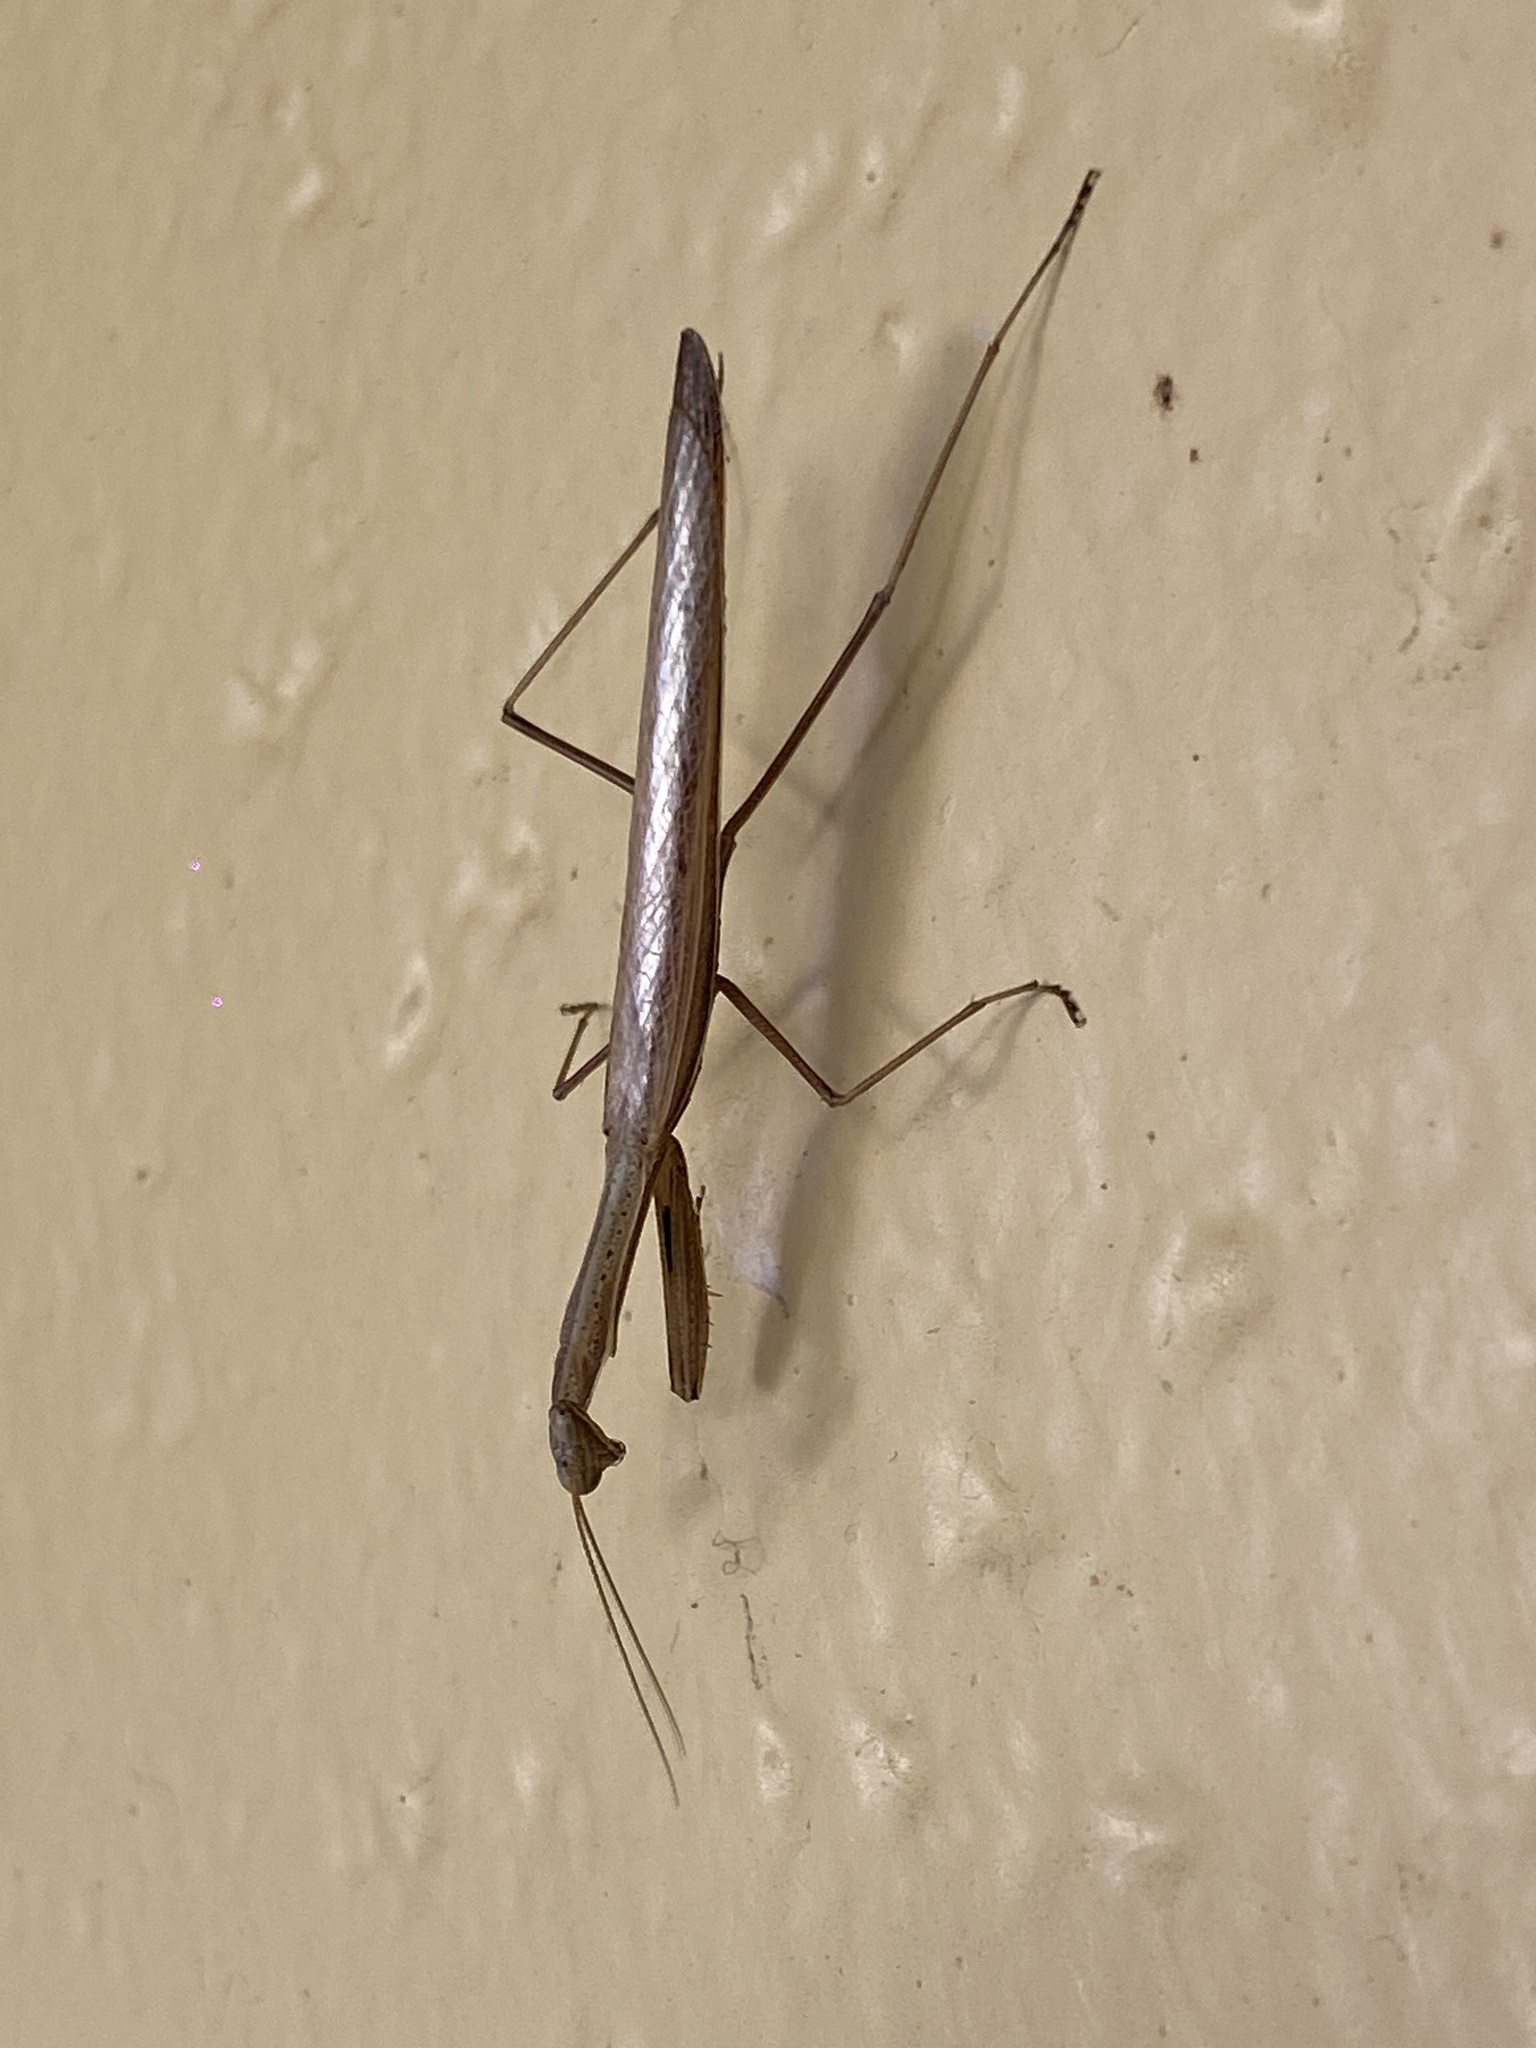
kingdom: Animalia
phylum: Arthropoda
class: Insecta
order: Mantodea
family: Mantidae
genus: Statilia
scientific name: Statilia apicalis
